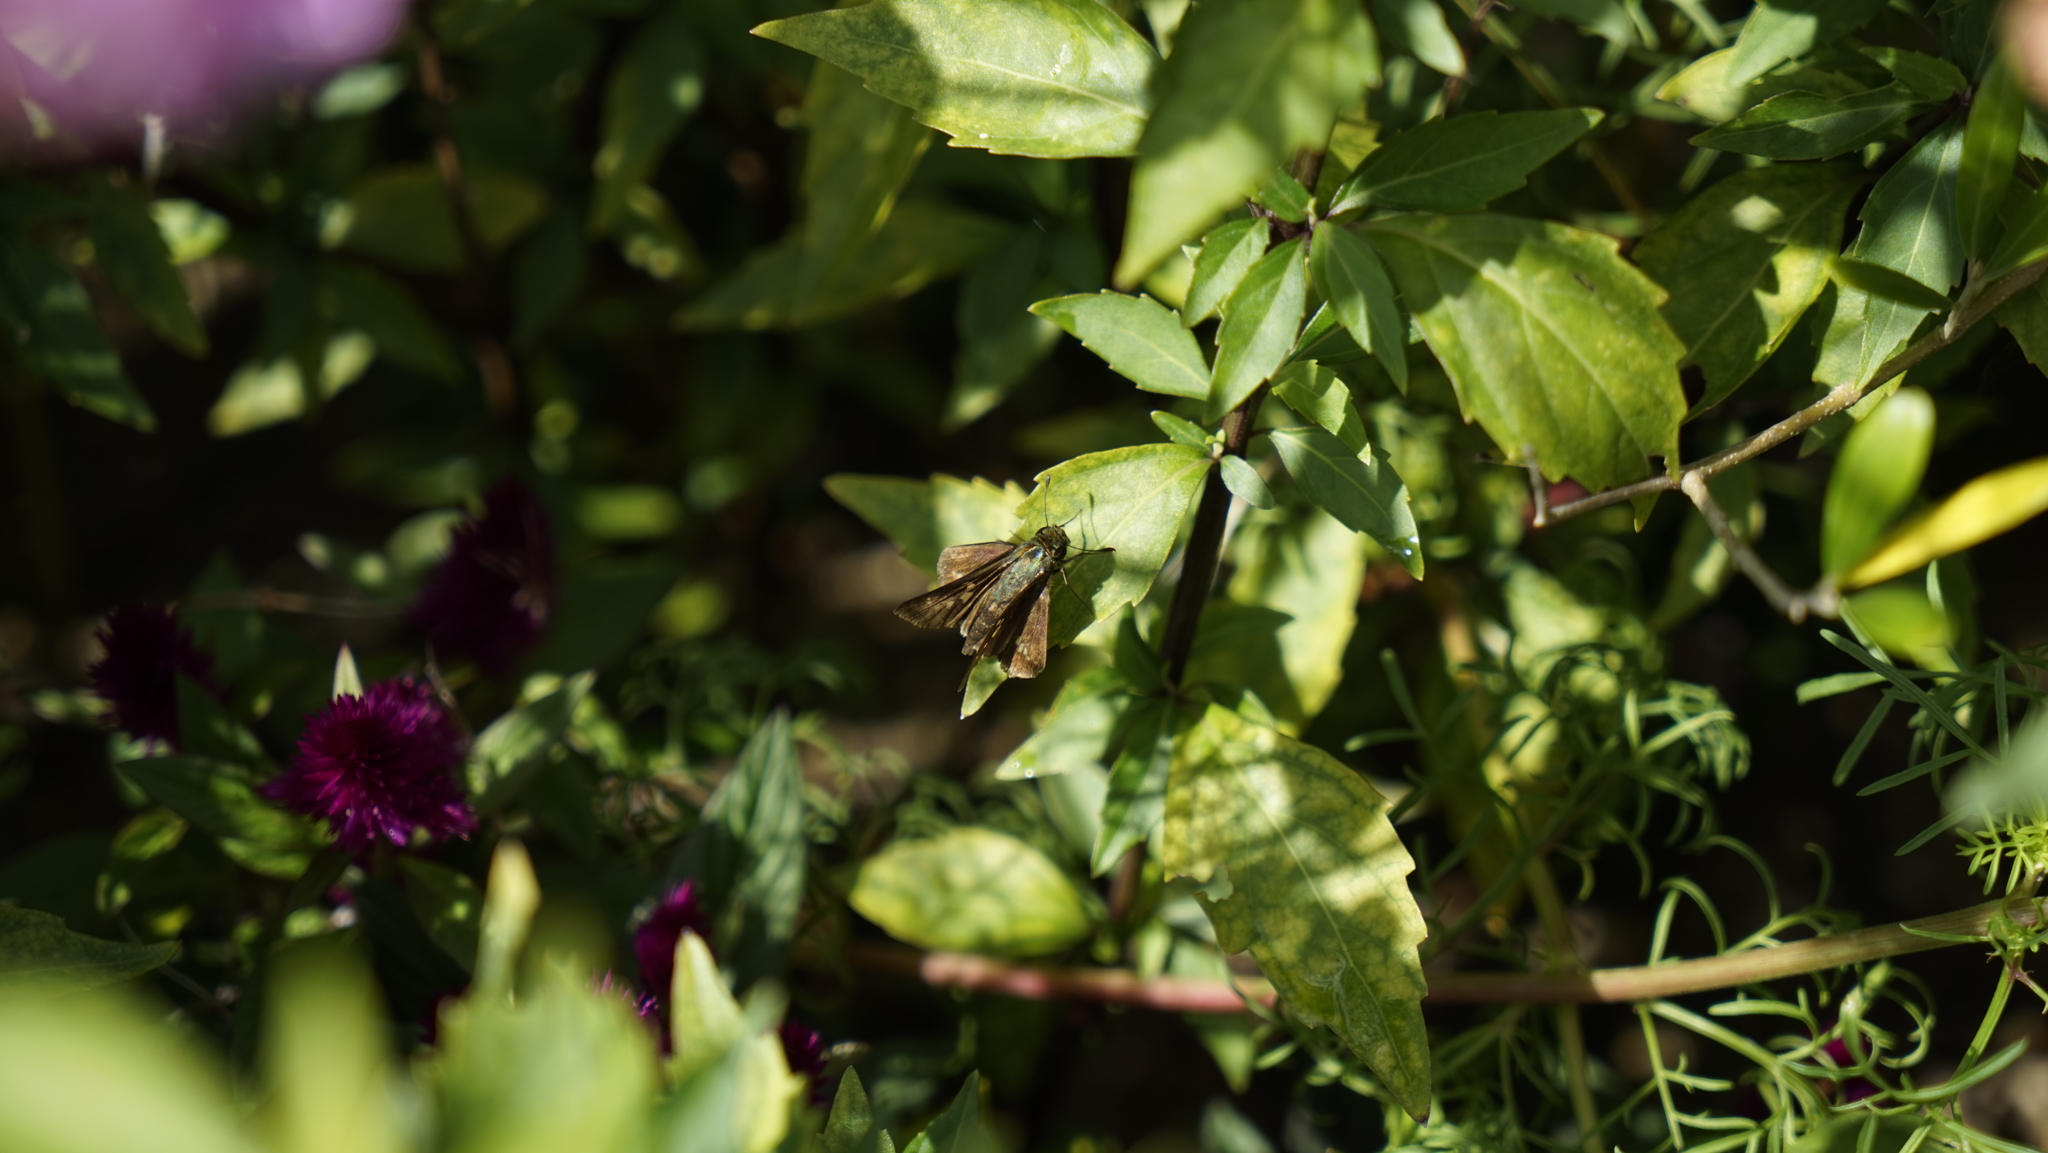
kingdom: Animalia
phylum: Arthropoda
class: Insecta
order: Lepidoptera
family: Hesperiidae
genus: Parnara
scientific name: Parnara guttatus
